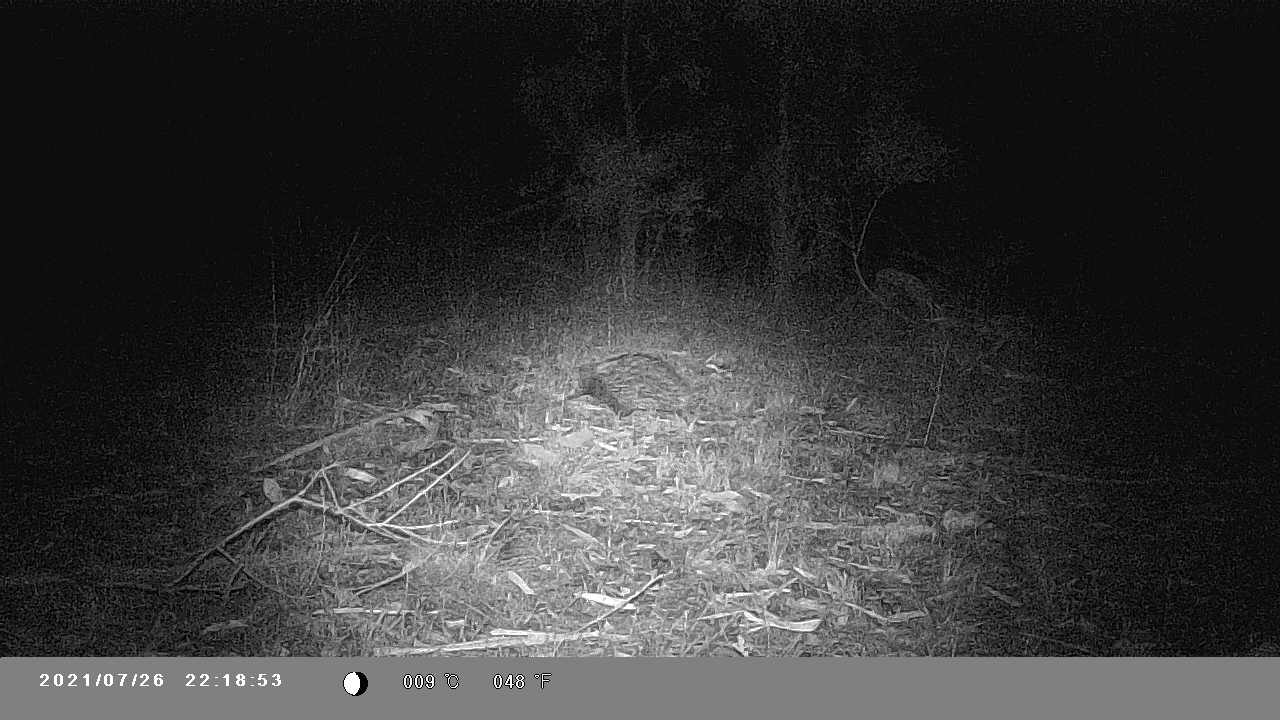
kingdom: Animalia
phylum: Chordata
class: Mammalia
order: Monotremata
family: Tachyglossidae
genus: Tachyglossus
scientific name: Tachyglossus aculeatus
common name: Short-beaked echidna
